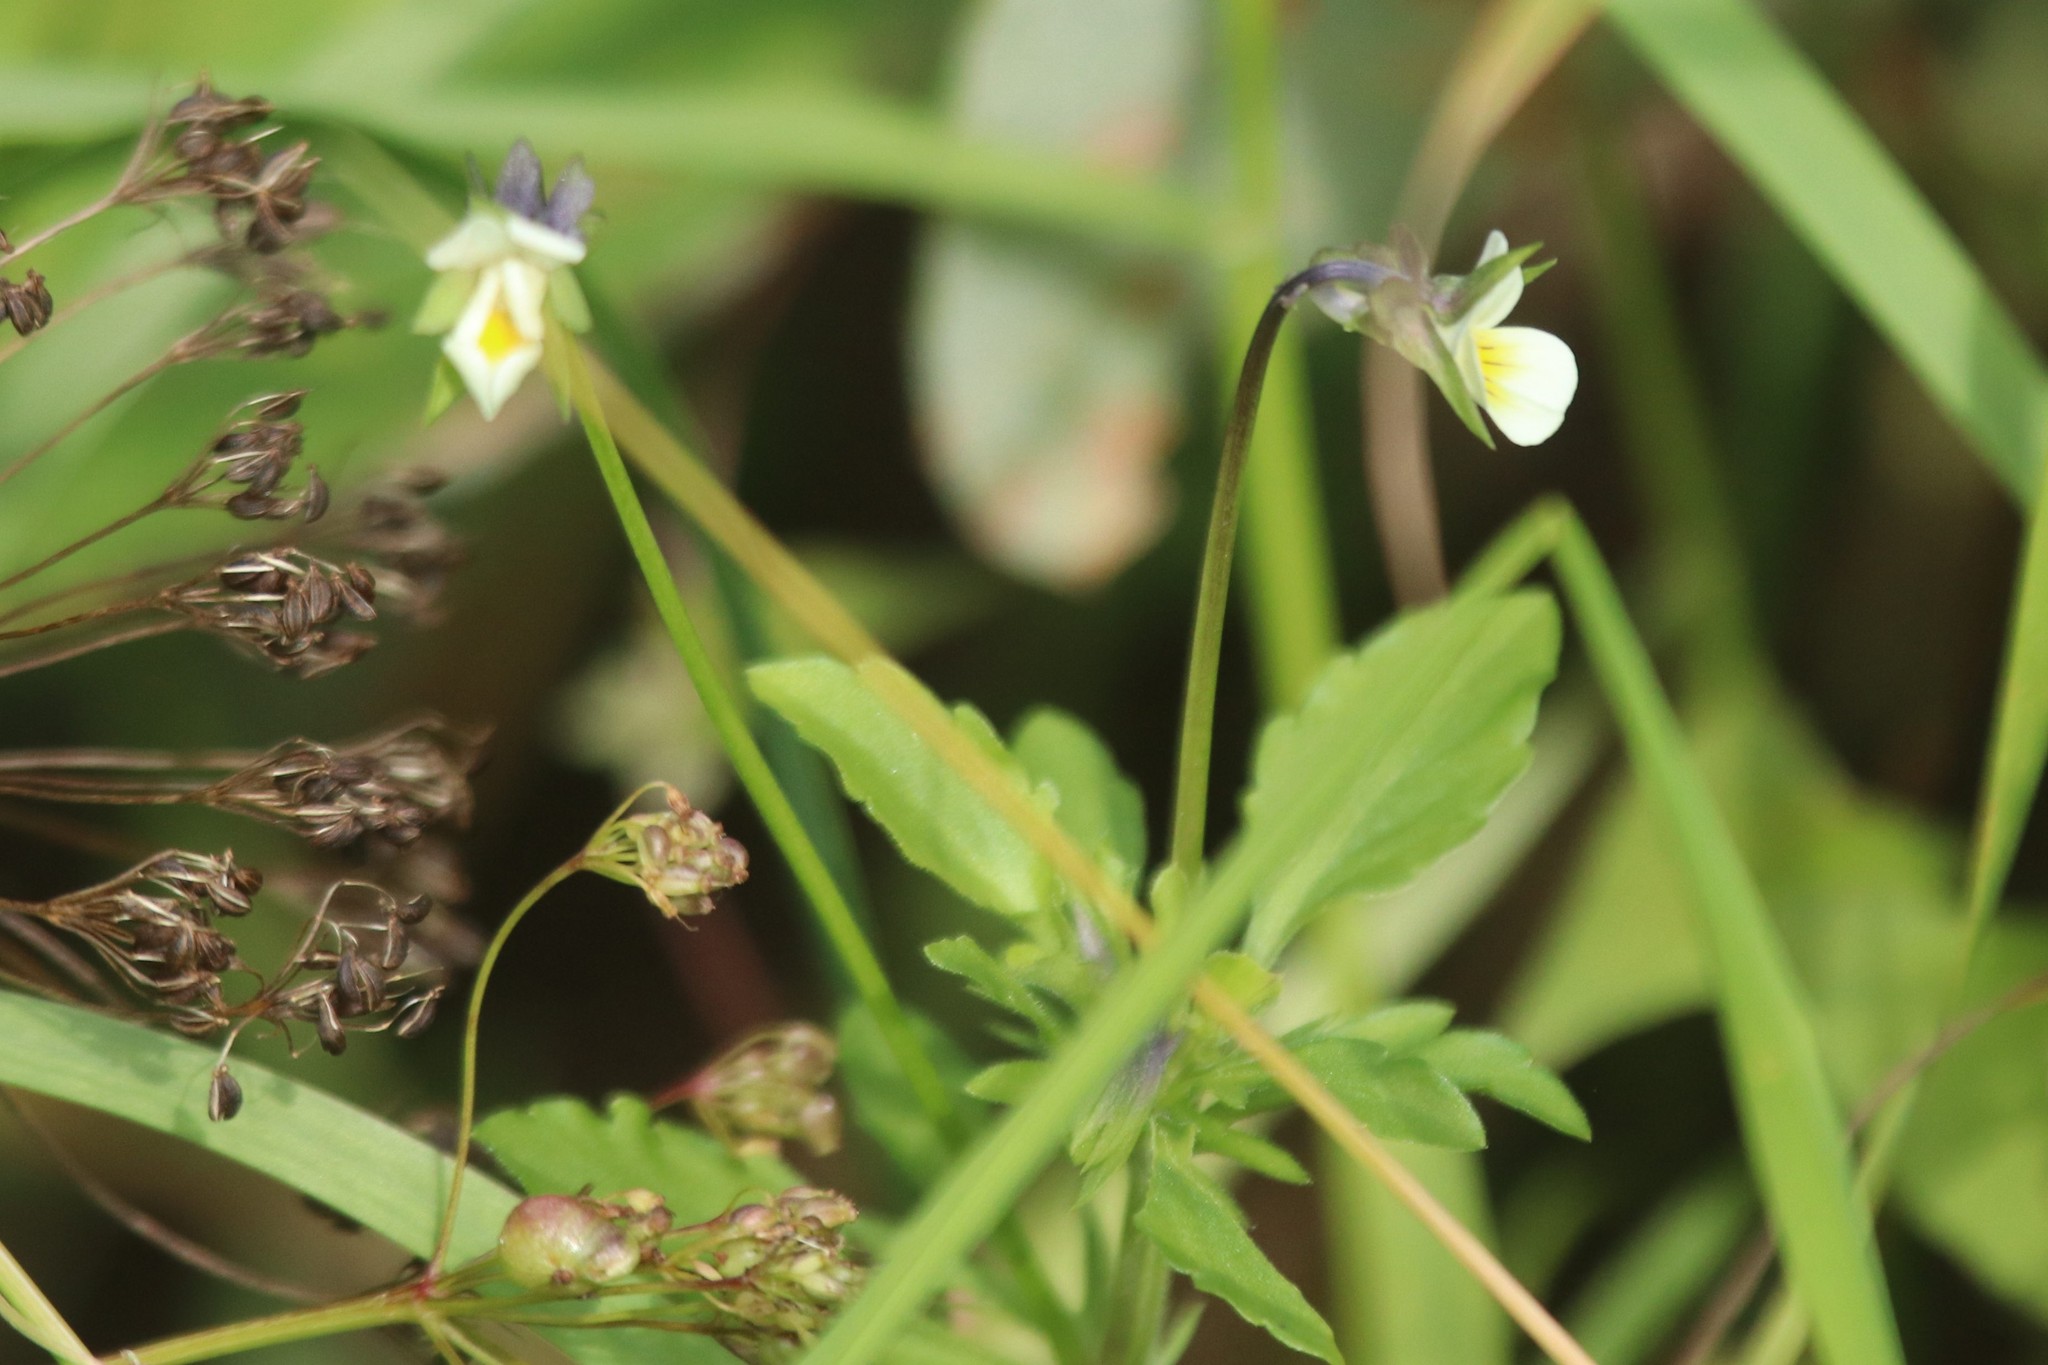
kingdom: Plantae
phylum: Tracheophyta
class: Magnoliopsida
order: Malpighiales
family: Violaceae
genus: Viola
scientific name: Viola arvensis
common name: Field pansy
